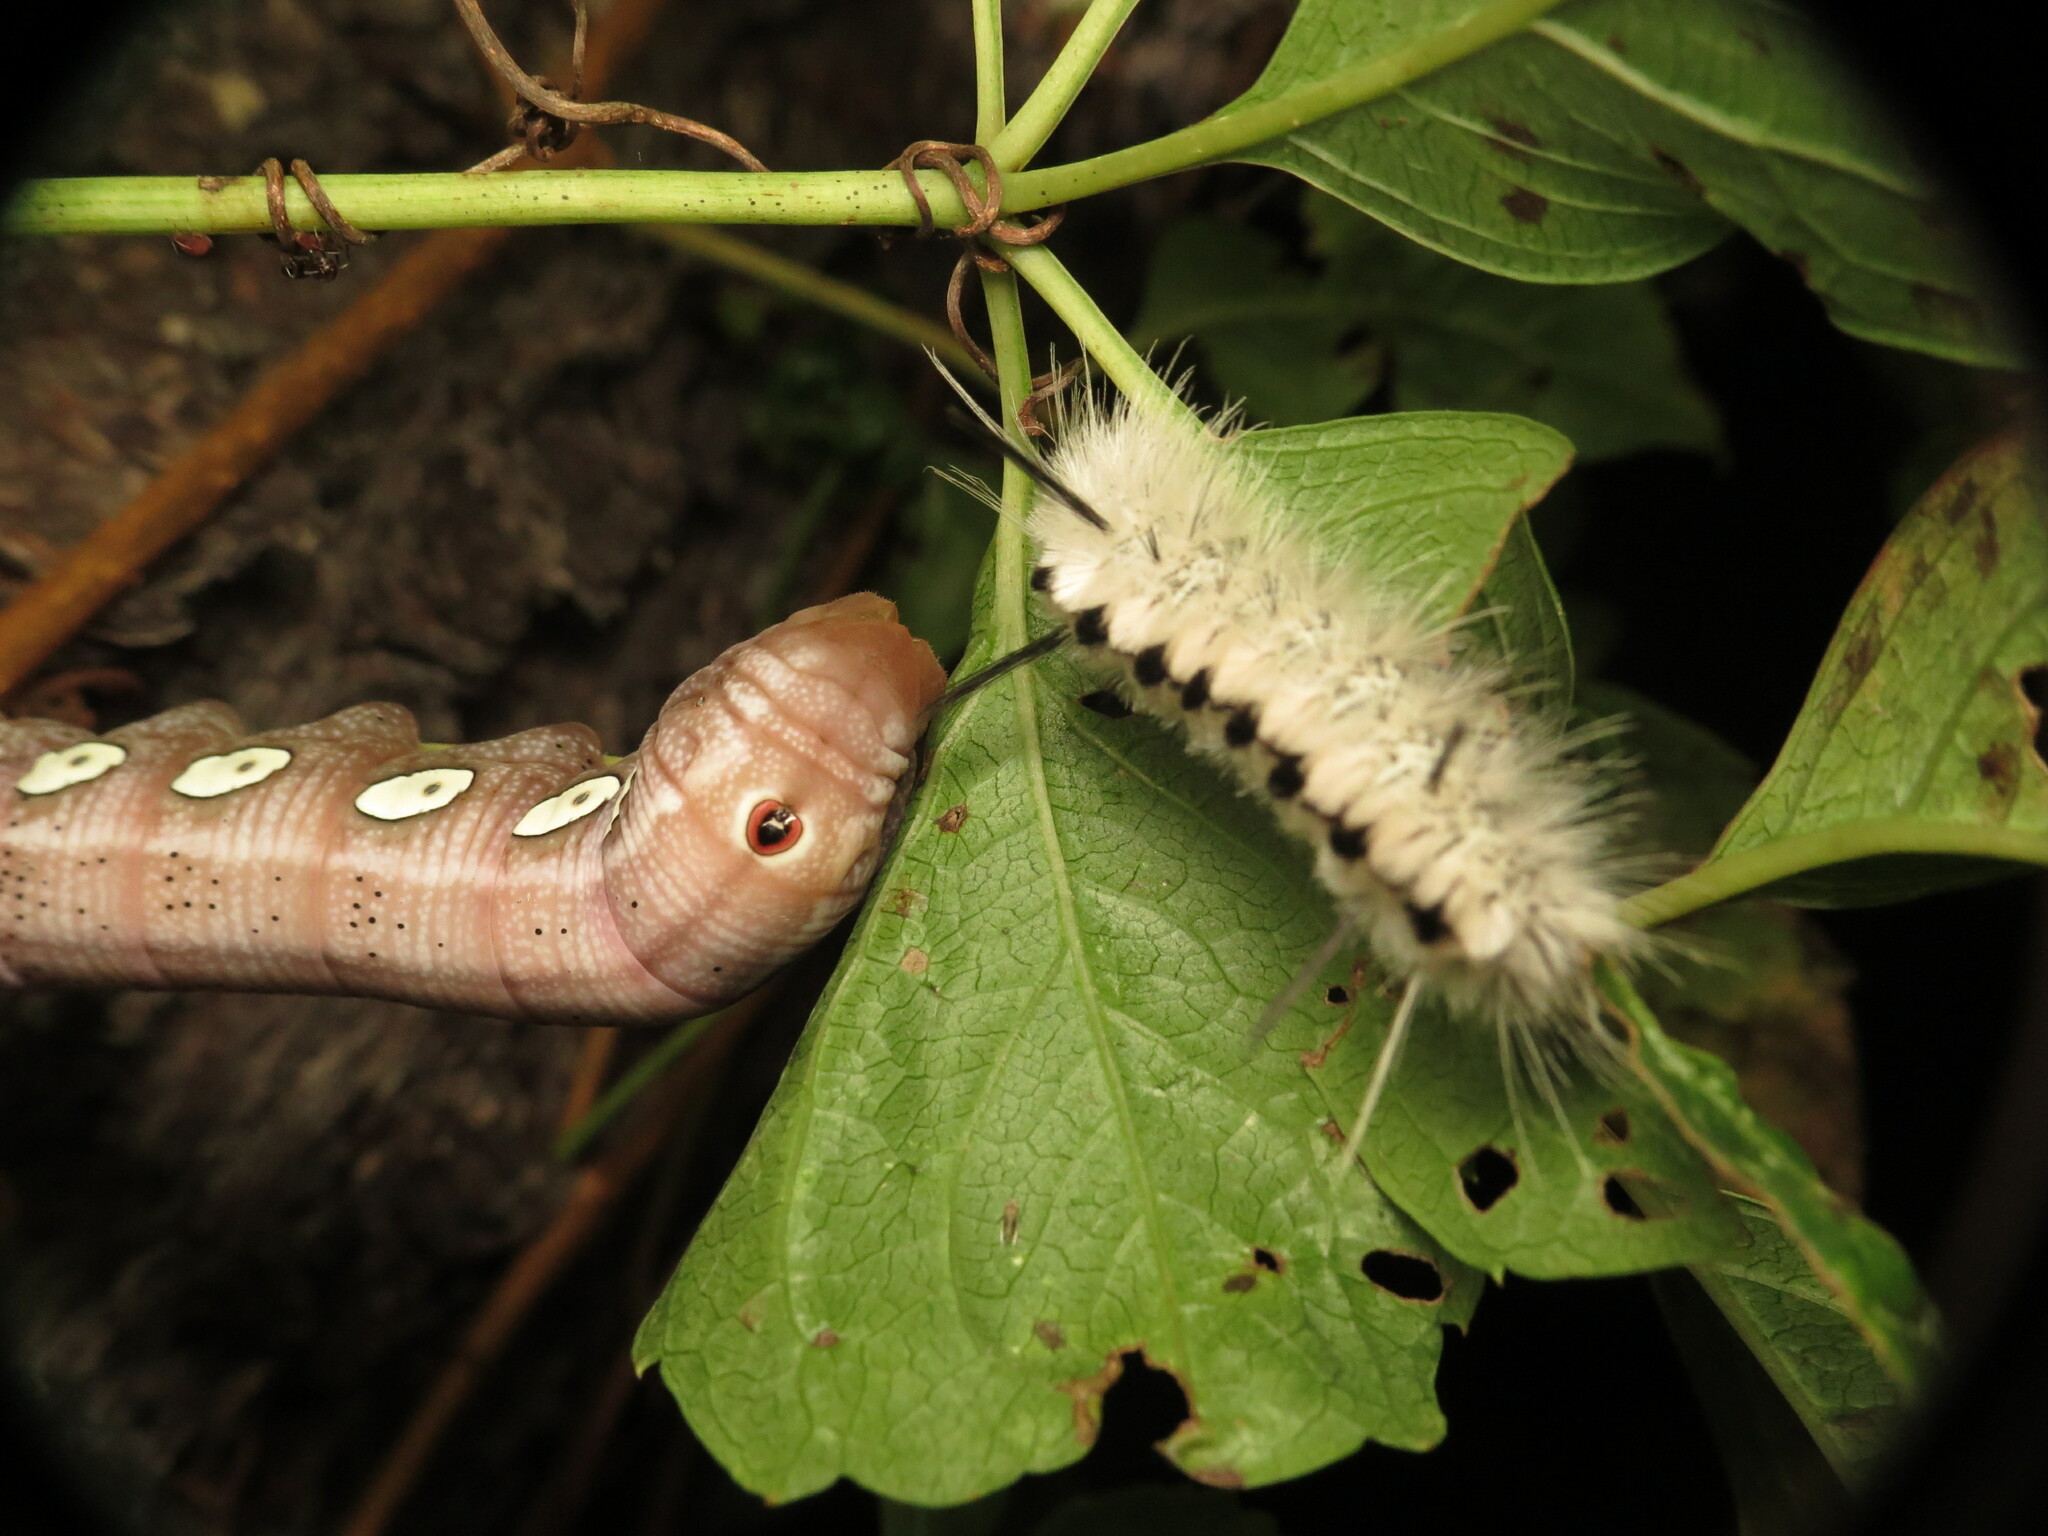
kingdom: Animalia
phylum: Arthropoda
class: Insecta
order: Lepidoptera
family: Erebidae
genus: Lophocampa
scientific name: Lophocampa caryae
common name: Hickory tussock moth
